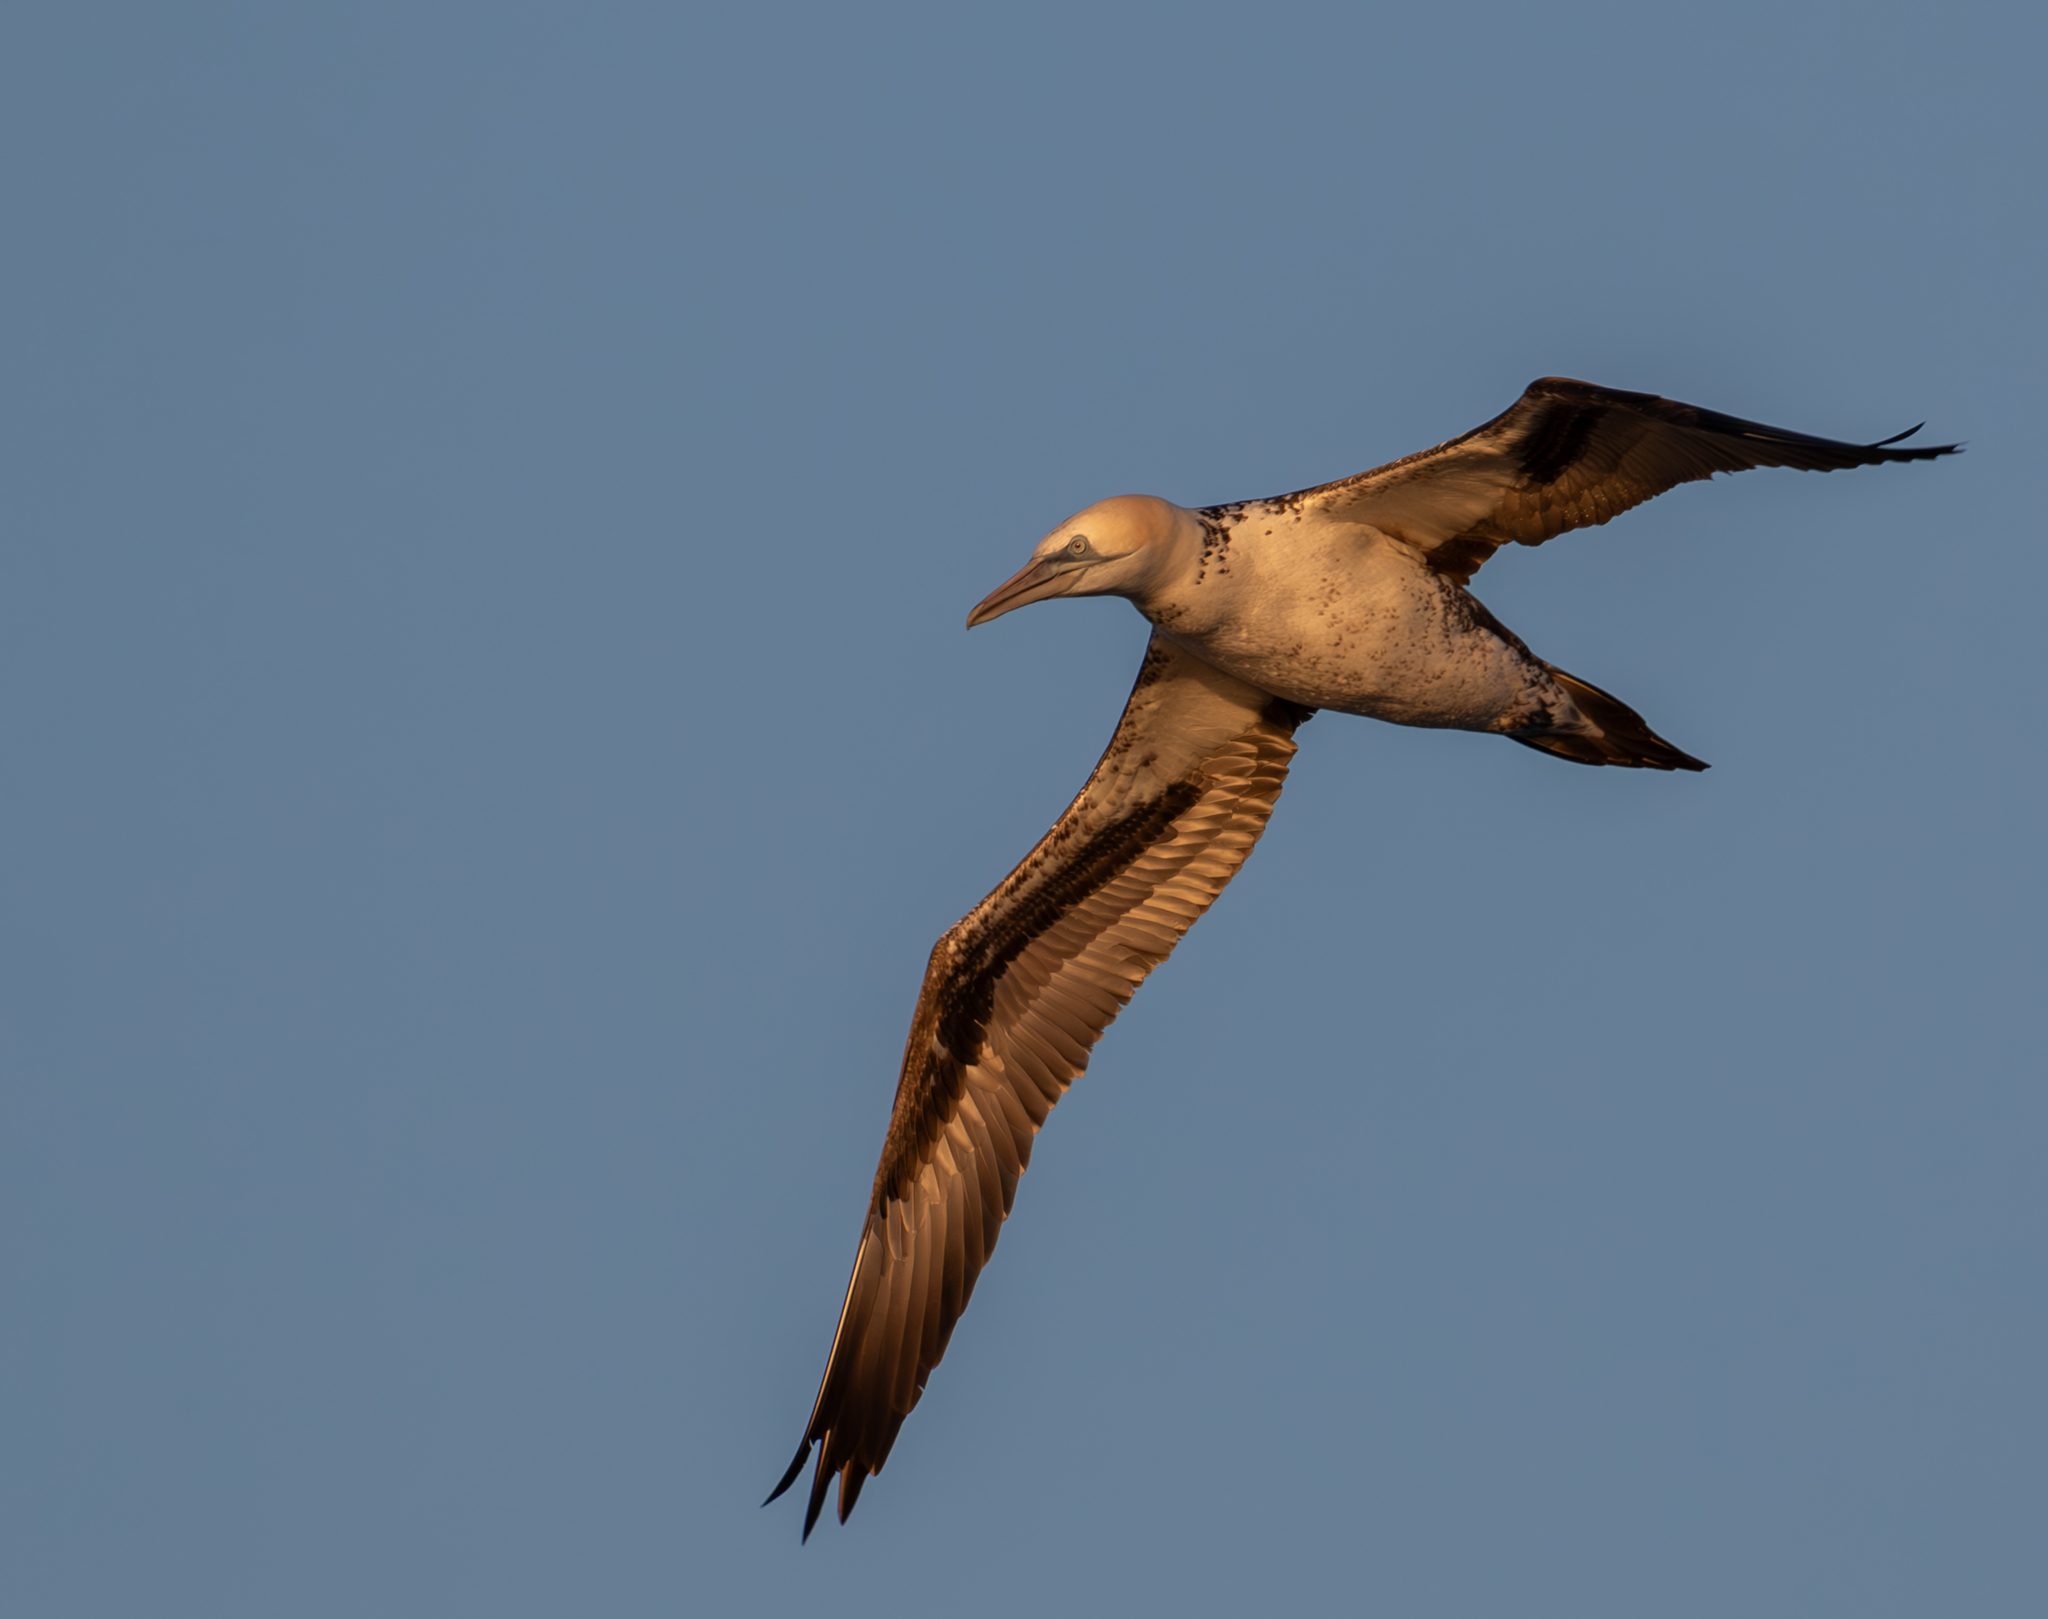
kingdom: Animalia
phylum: Chordata
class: Aves
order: Suliformes
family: Sulidae
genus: Morus
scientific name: Morus bassanus
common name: Northern gannet
